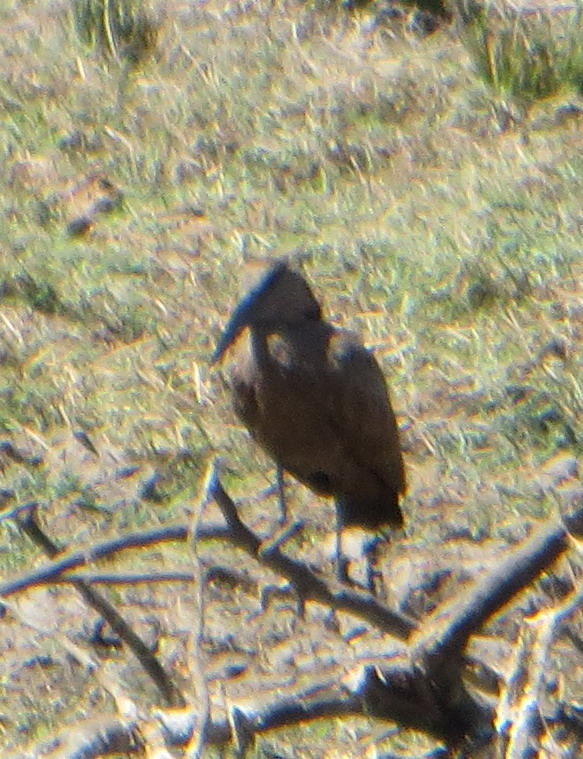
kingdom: Animalia
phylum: Chordata
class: Aves
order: Pelecaniformes
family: Scopidae
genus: Scopus
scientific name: Scopus umbretta
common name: Hamerkop
